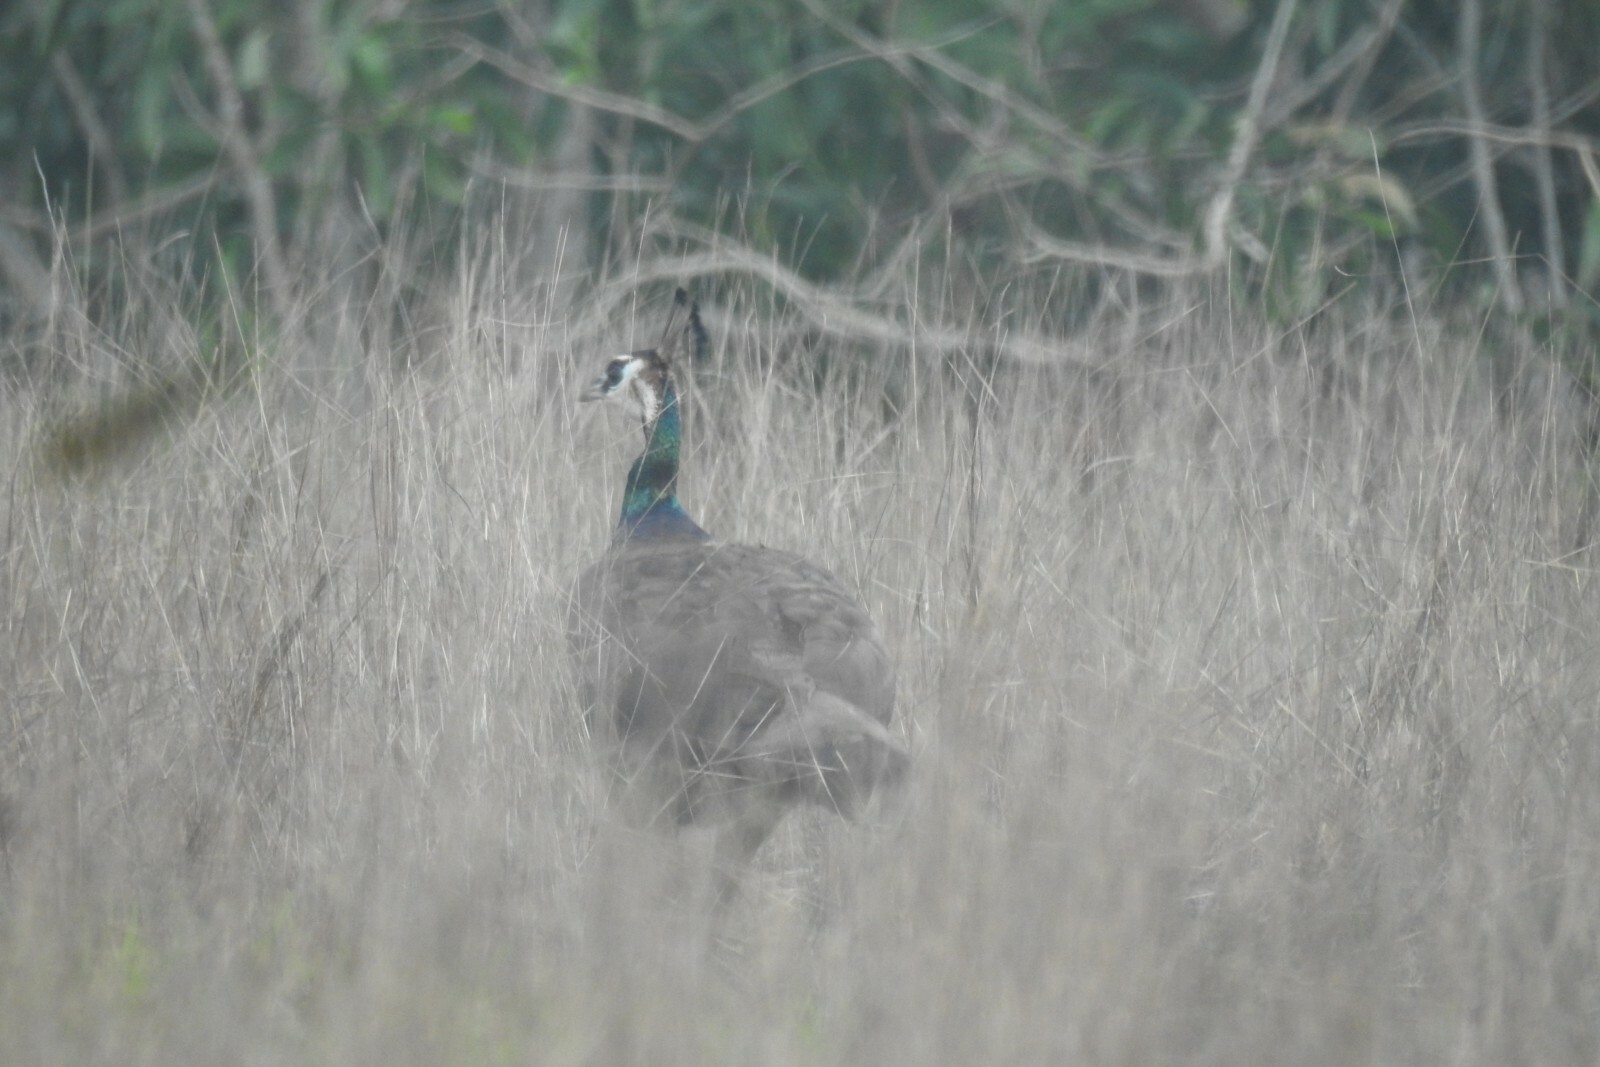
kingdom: Animalia
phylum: Chordata
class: Aves
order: Galliformes
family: Phasianidae
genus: Pavo
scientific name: Pavo cristatus
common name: Indian peafowl
